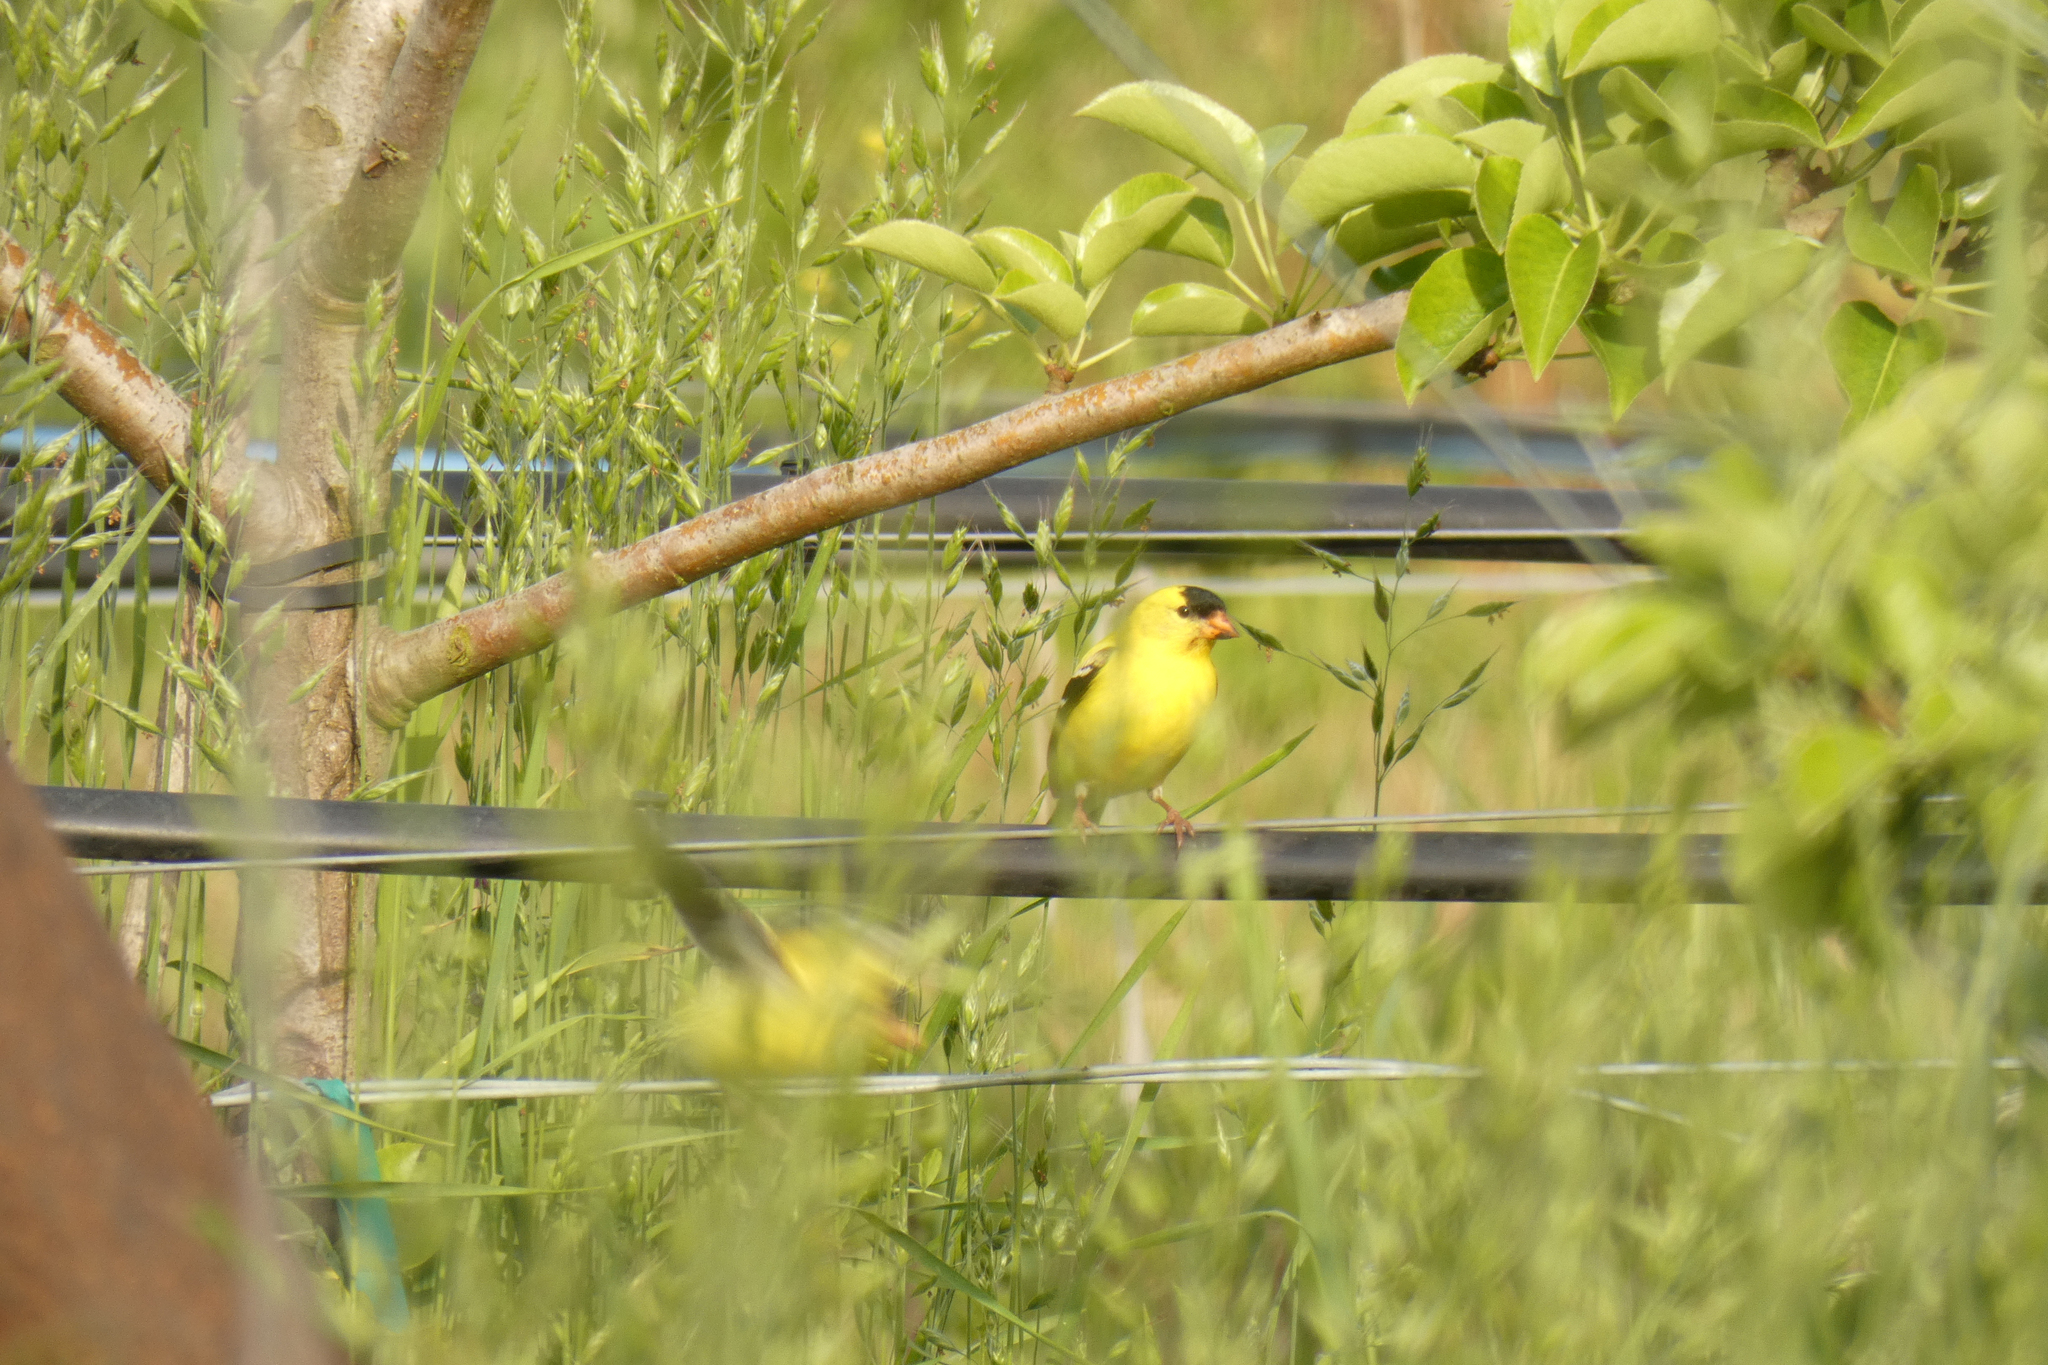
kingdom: Animalia
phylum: Chordata
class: Aves
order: Passeriformes
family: Fringillidae
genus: Spinus
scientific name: Spinus tristis
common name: American goldfinch
